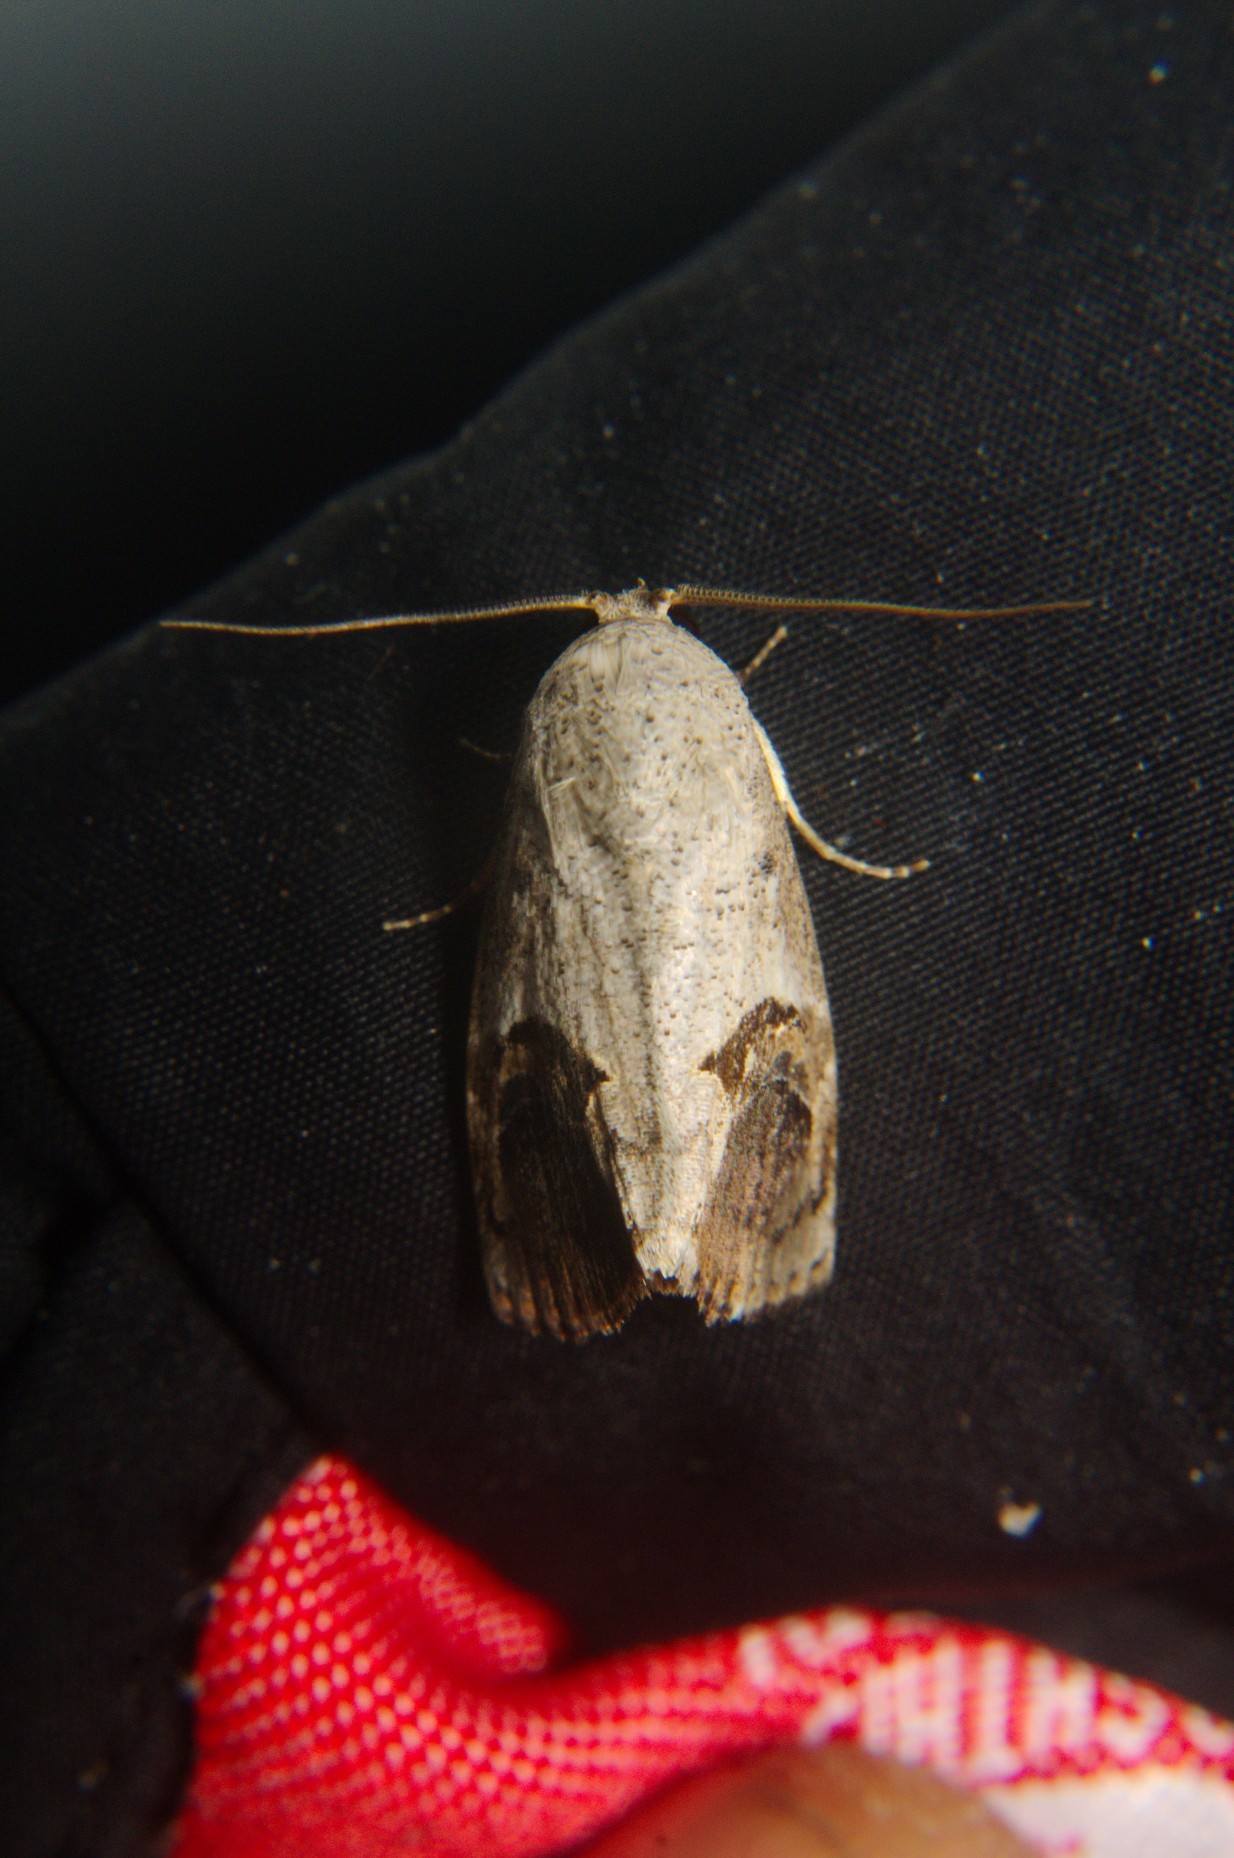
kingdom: Animalia
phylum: Arthropoda
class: Insecta
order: Lepidoptera
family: Nolidae
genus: Miaromima
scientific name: Miaromima naessigi
